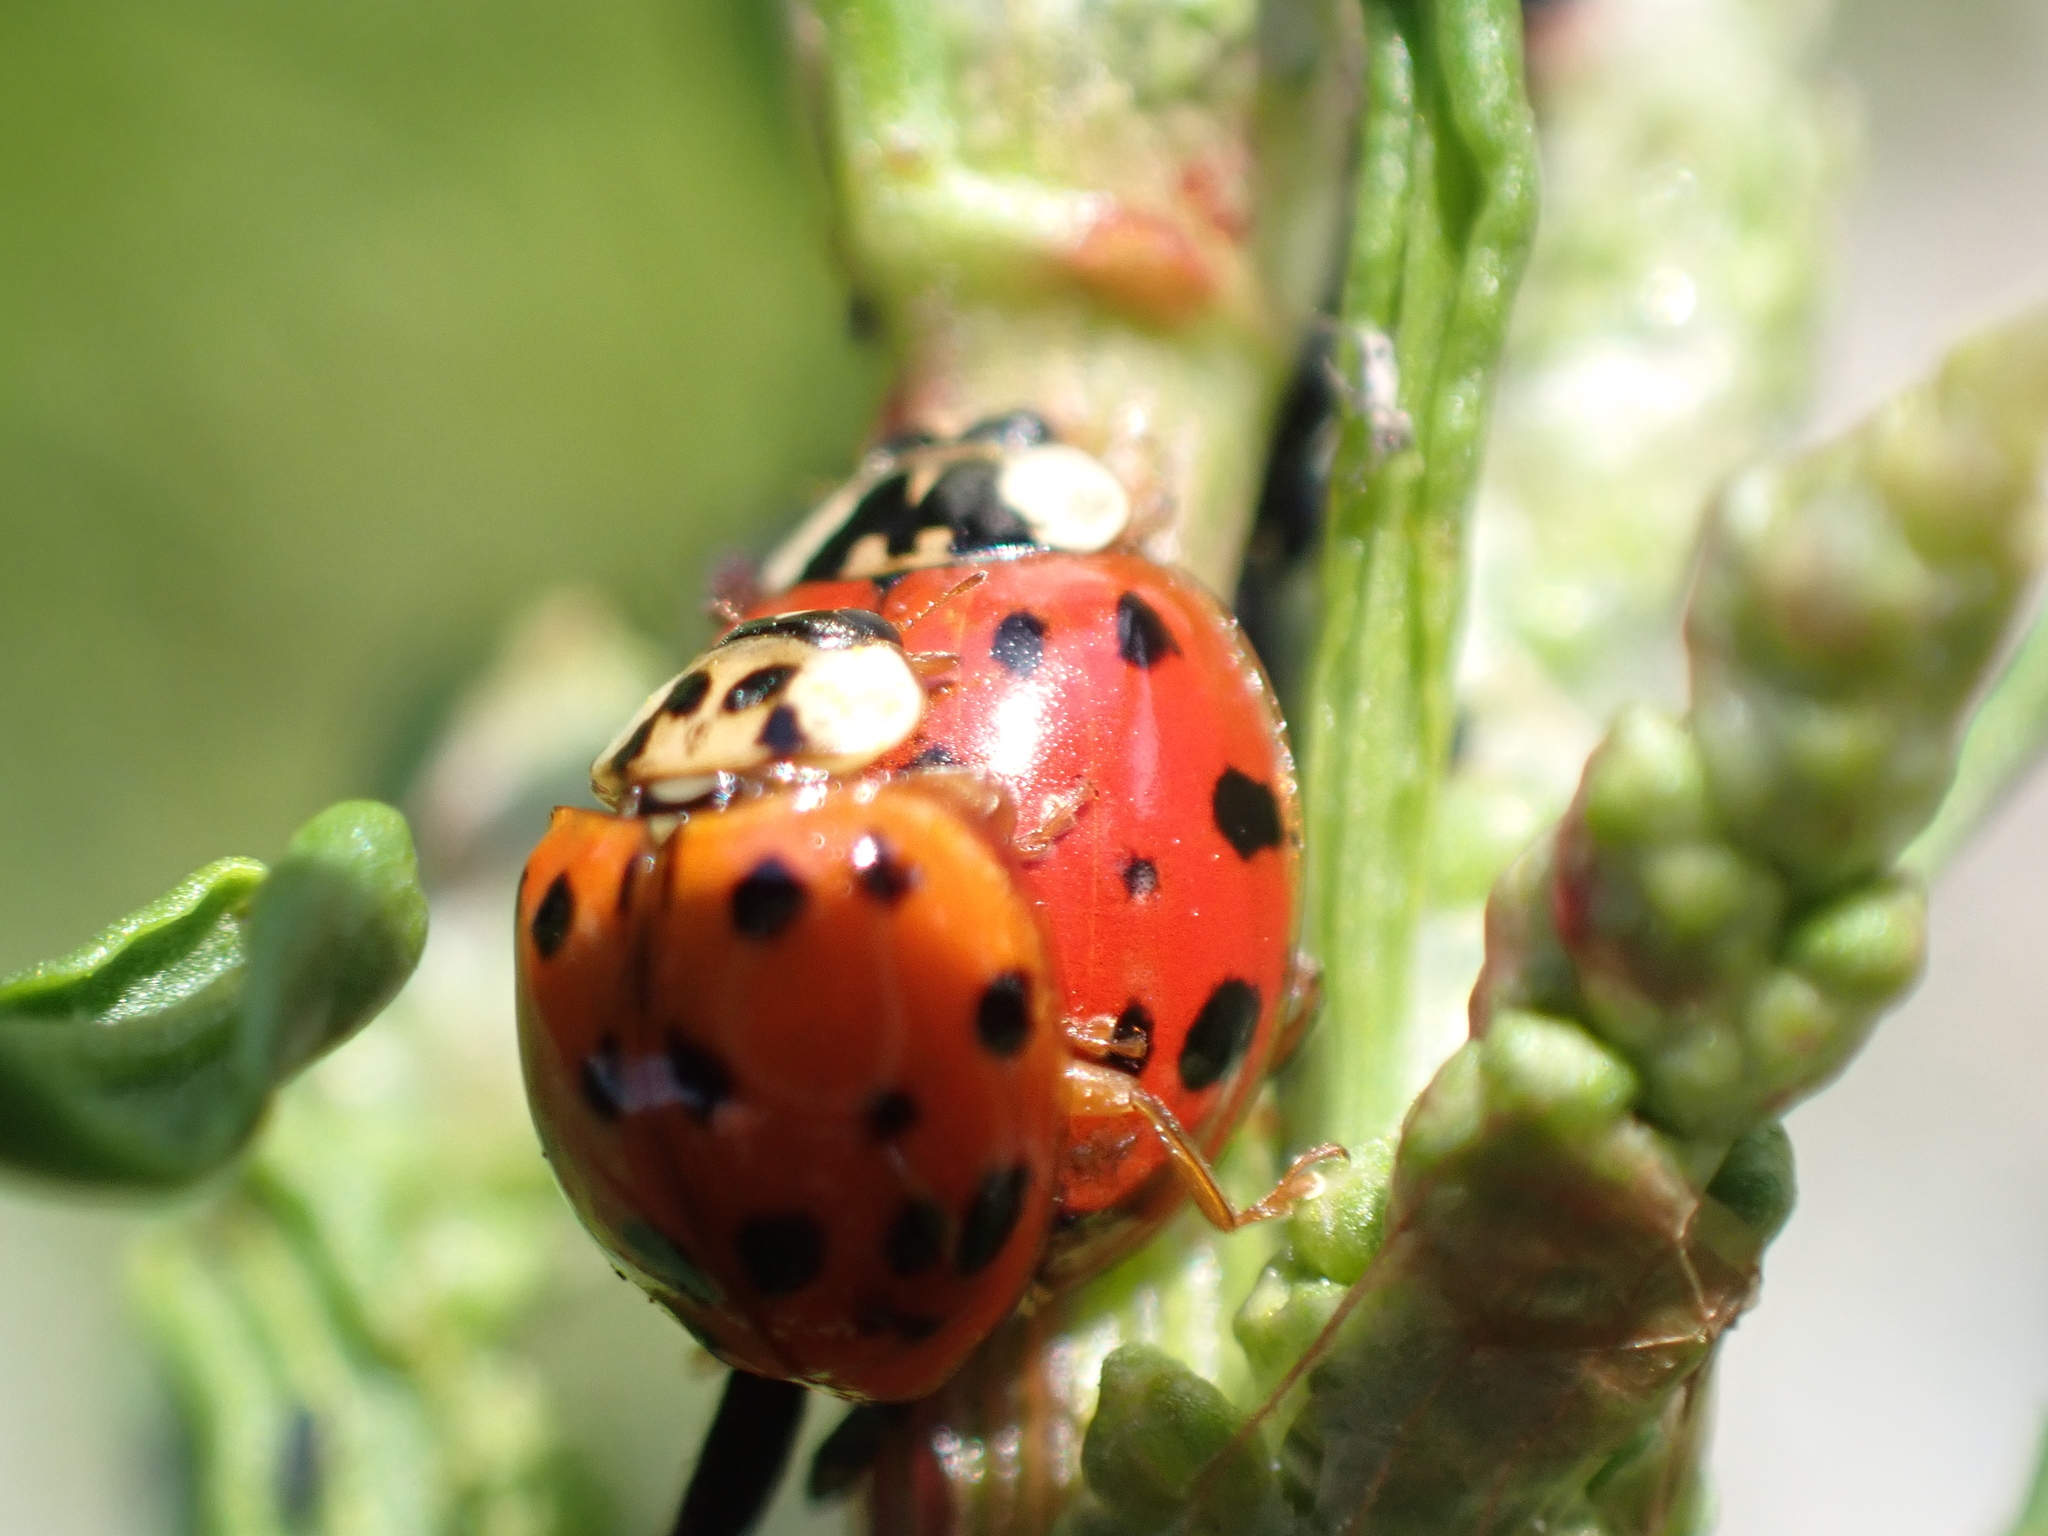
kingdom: Animalia
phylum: Arthropoda
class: Insecta
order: Coleoptera
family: Coccinellidae
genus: Harmonia
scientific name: Harmonia axyridis
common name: Harlequin ladybird
